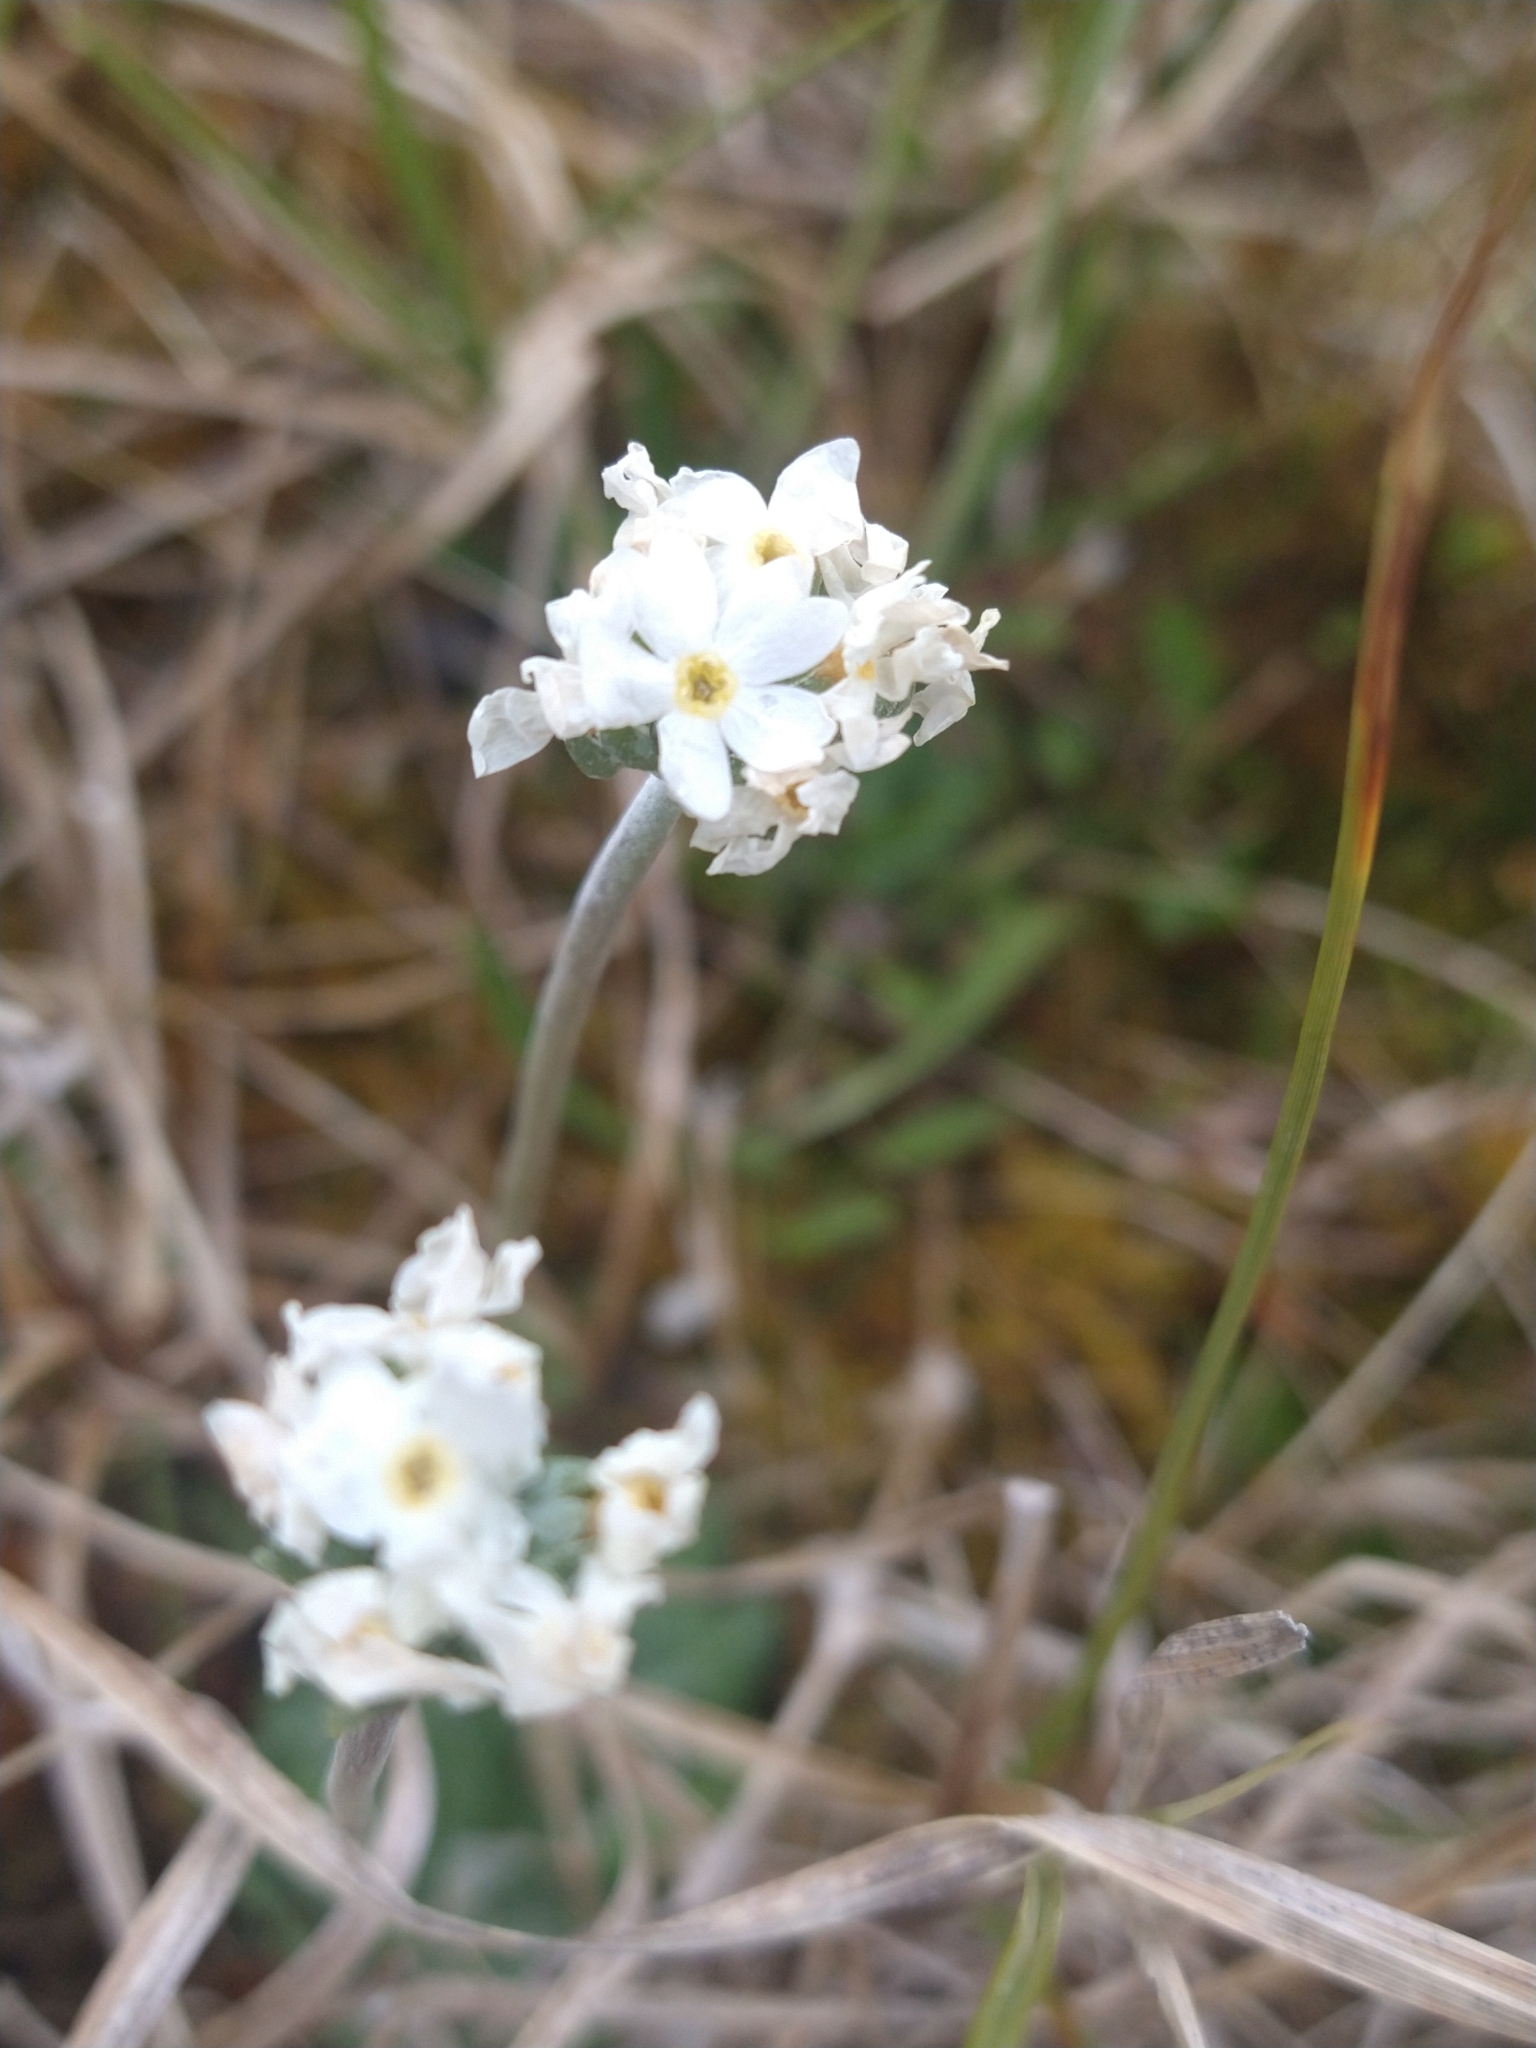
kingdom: Plantae
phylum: Tracheophyta
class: Magnoliopsida
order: Ericales
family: Primulaceae
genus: Primula
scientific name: Primula magellanica
